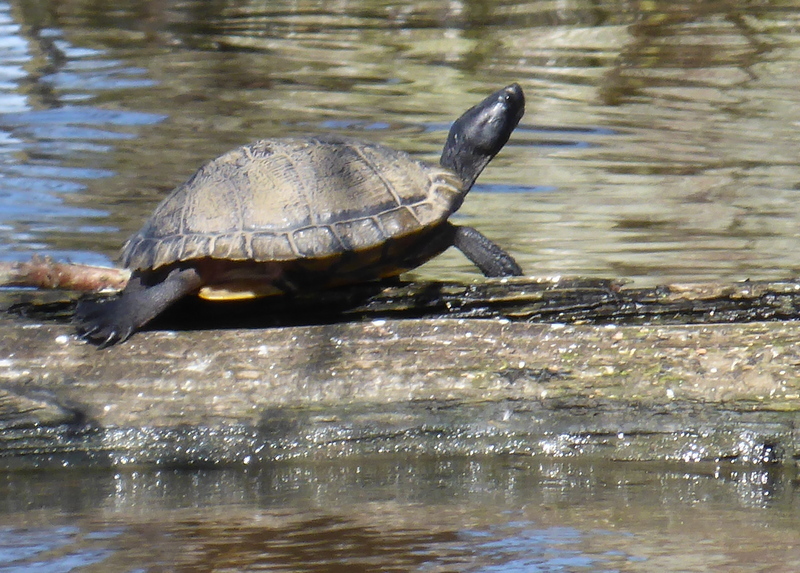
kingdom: Animalia
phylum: Chordata
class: Testudines
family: Emydidae
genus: Trachemys
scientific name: Trachemys scripta
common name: Slider
